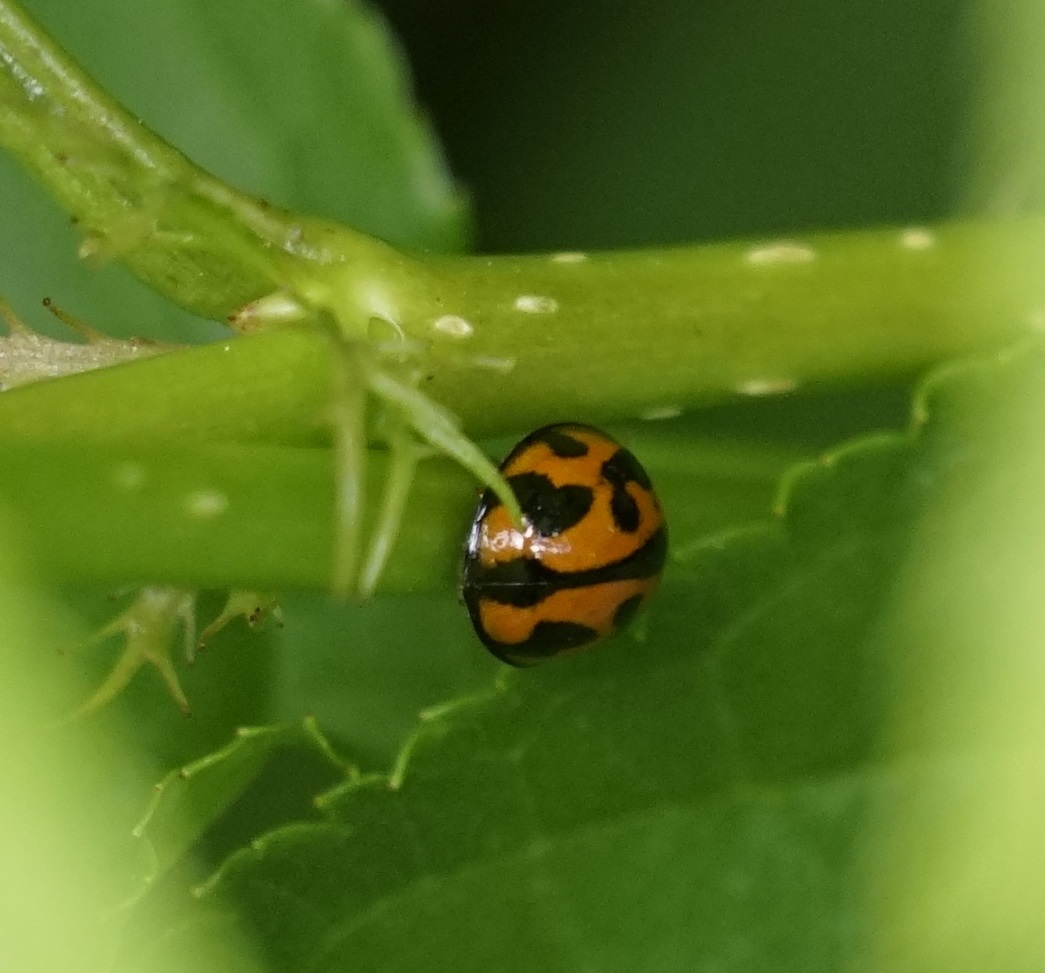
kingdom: Animalia
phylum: Arthropoda
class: Insecta
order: Coleoptera
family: Coccinellidae
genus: Coelophora
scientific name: Coelophora inaequalis
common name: Common australian lady beetle
